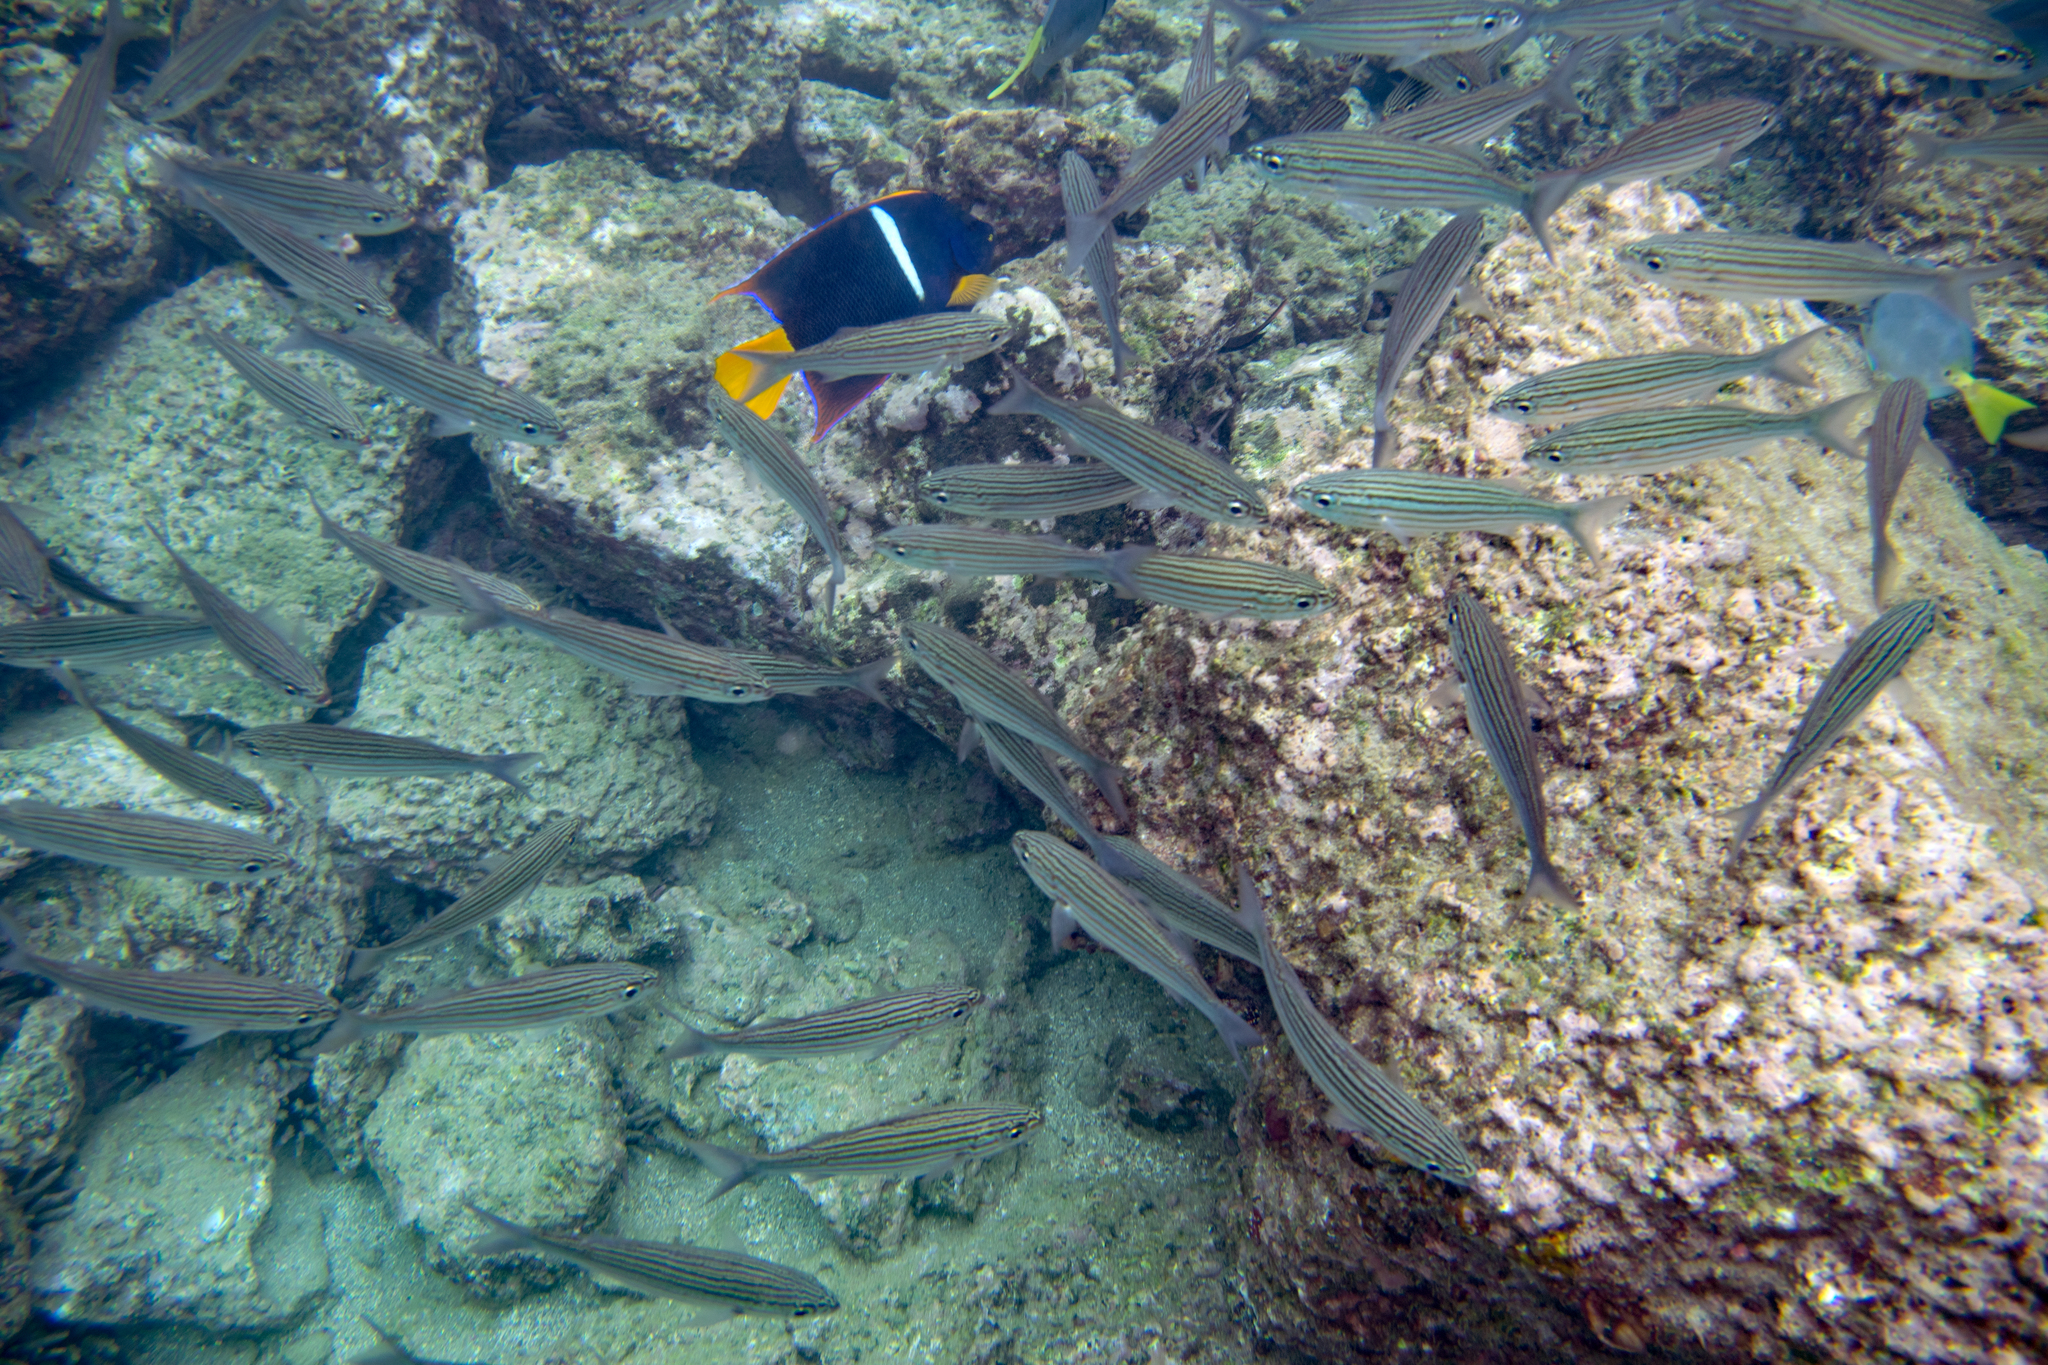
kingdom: Animalia
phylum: Chordata
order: Perciformes
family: Pomacanthidae
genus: Holacanthus
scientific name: Holacanthus passer
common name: King angelfish
